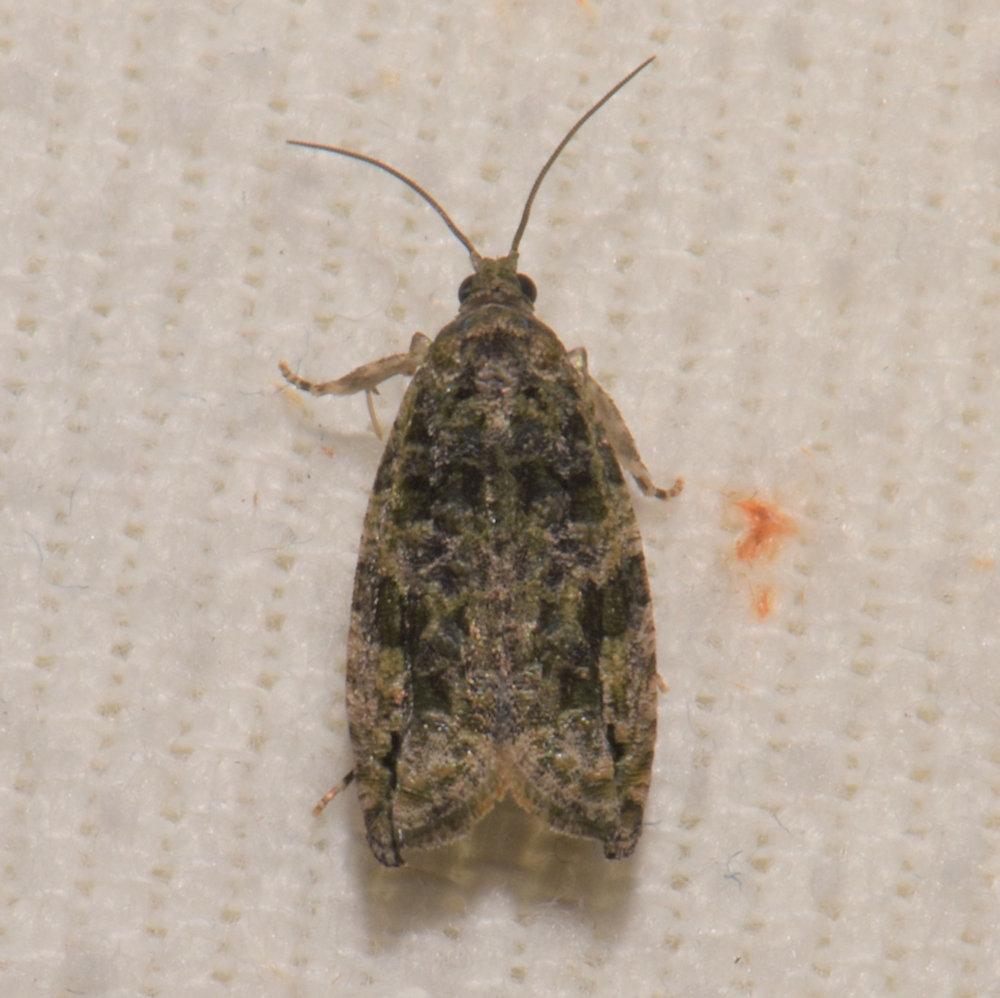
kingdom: Animalia
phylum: Arthropoda
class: Insecta
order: Lepidoptera
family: Tortricidae
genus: Proteoteras
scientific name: Proteoteras aesculana
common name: Maple twig borer moth
